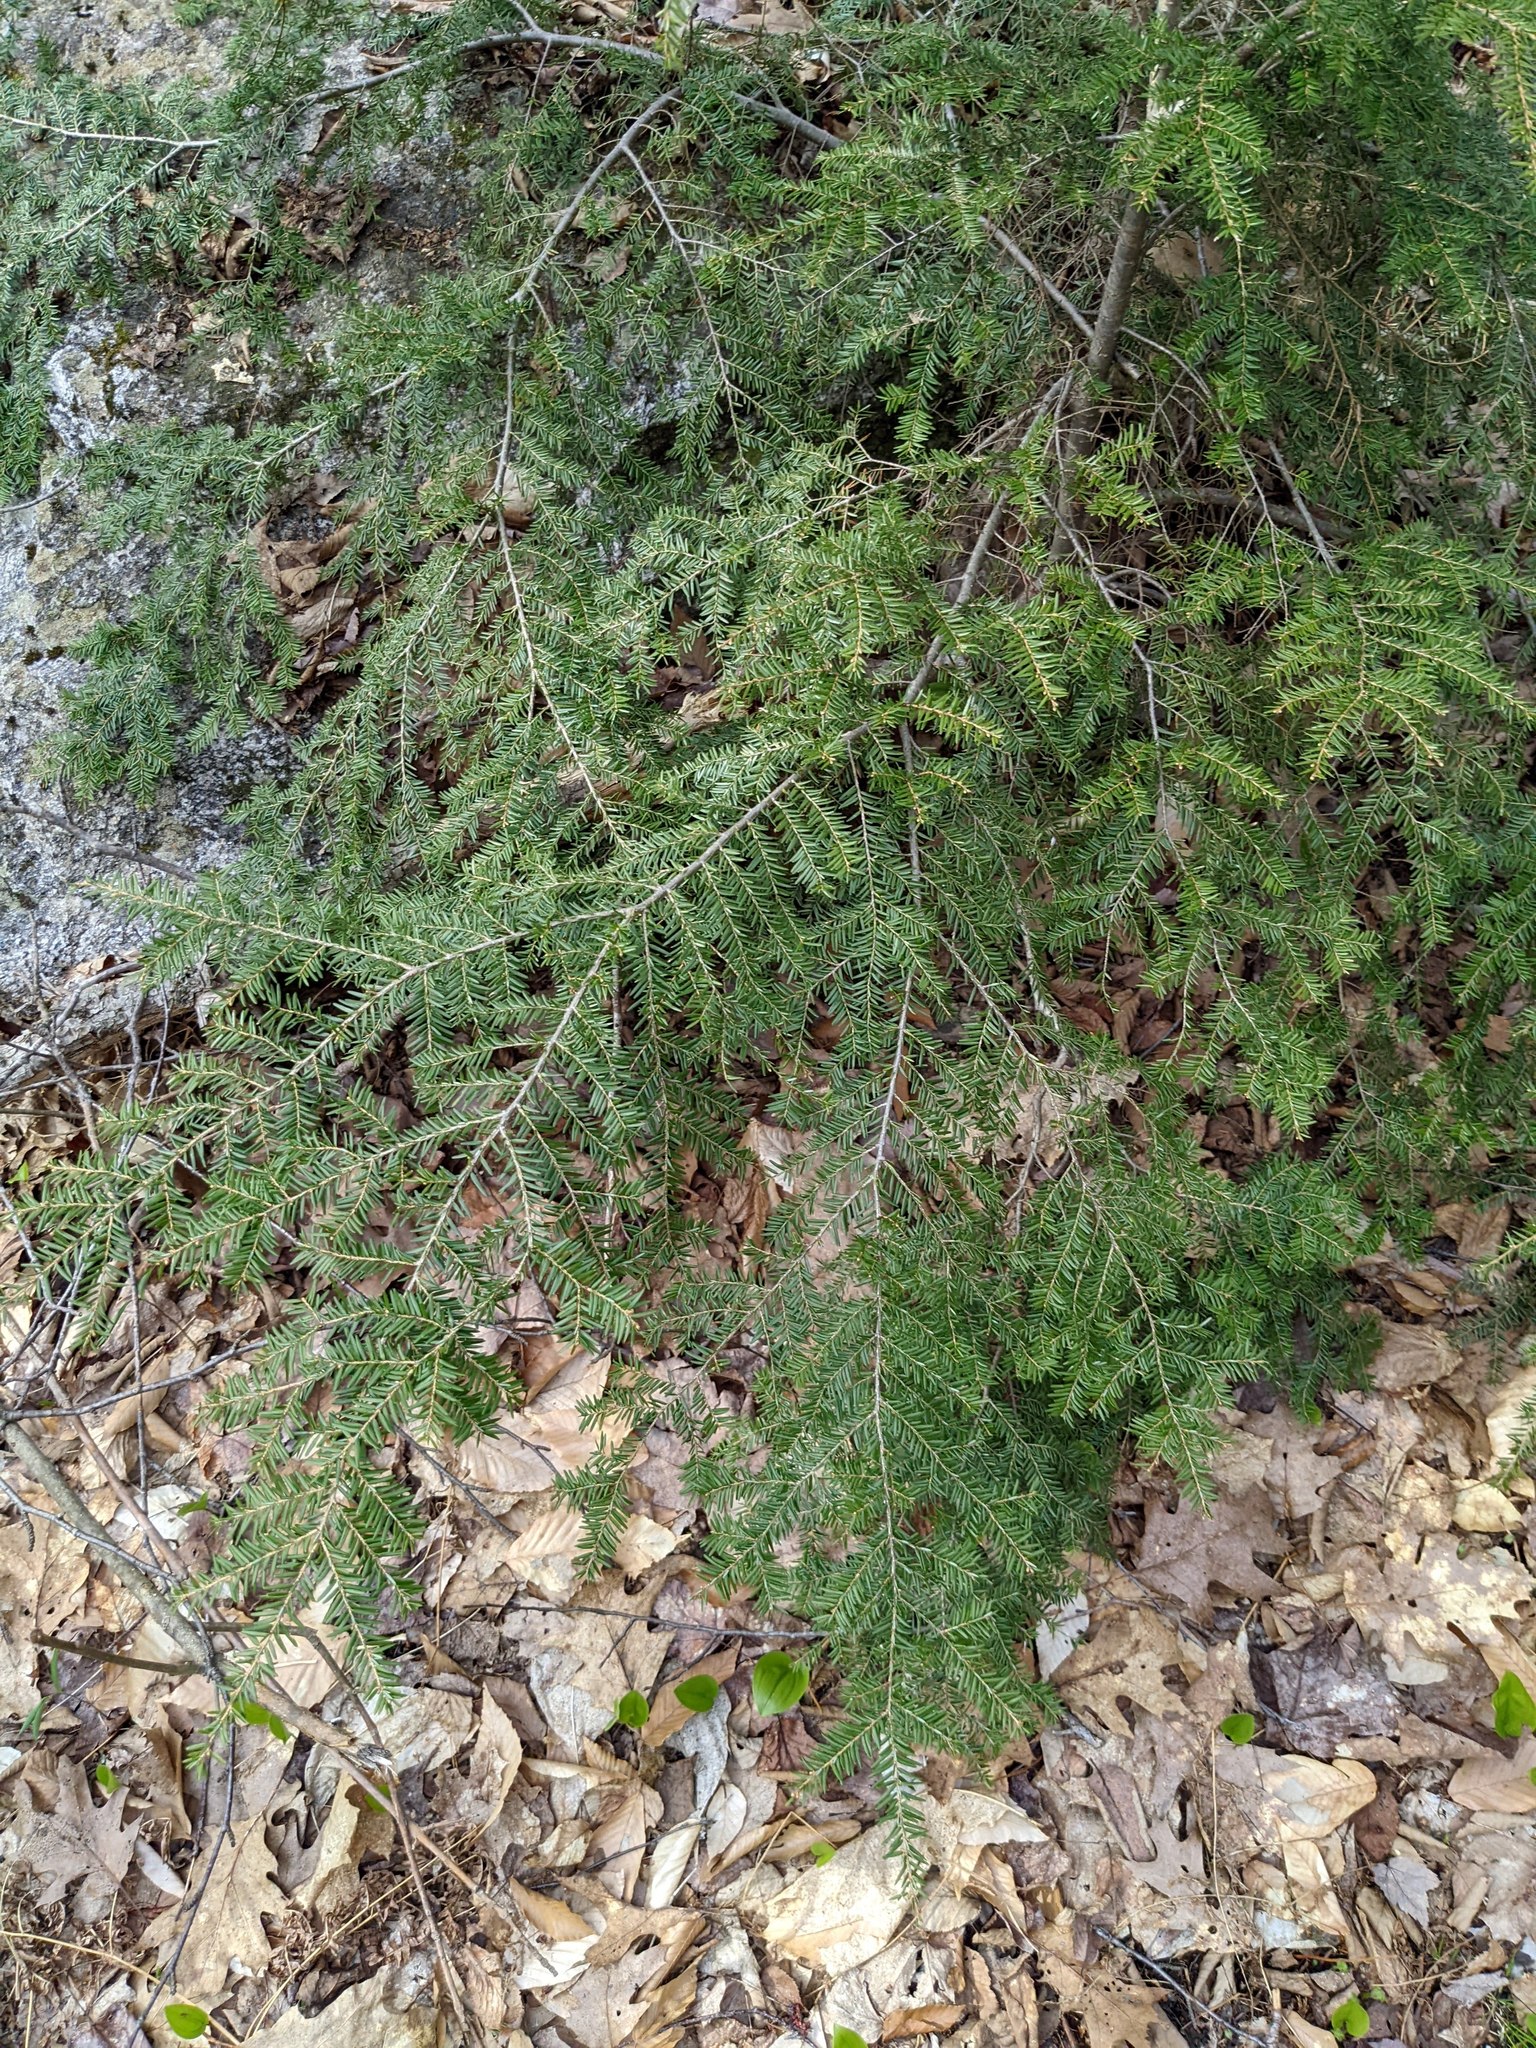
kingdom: Plantae
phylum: Tracheophyta
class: Pinopsida
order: Pinales
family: Pinaceae
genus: Tsuga
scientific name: Tsuga canadensis
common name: Eastern hemlock
